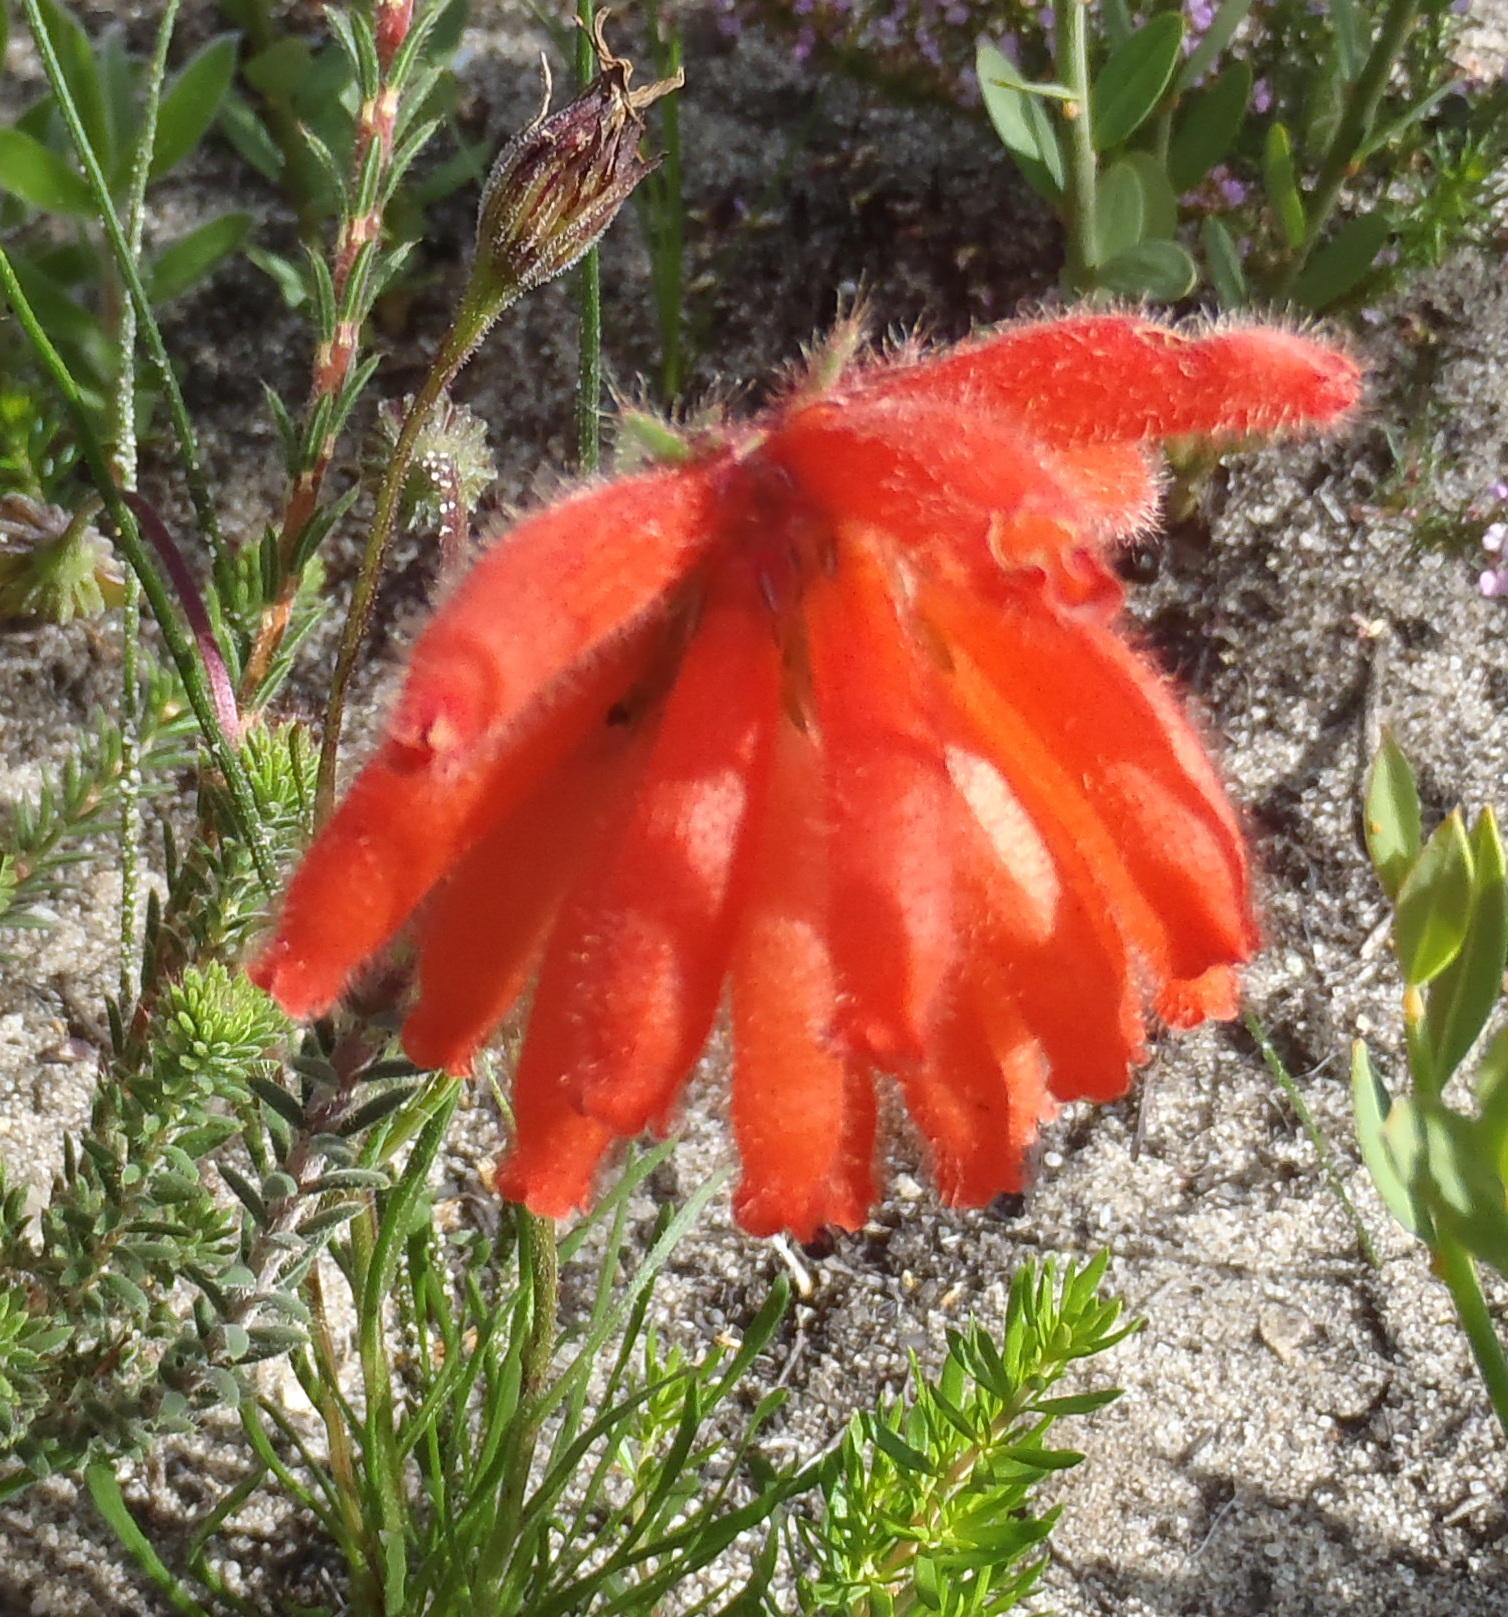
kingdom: Plantae
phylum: Tracheophyta
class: Magnoliopsida
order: Ericales
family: Ericaceae
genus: Erica
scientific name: Erica cerinthoides
